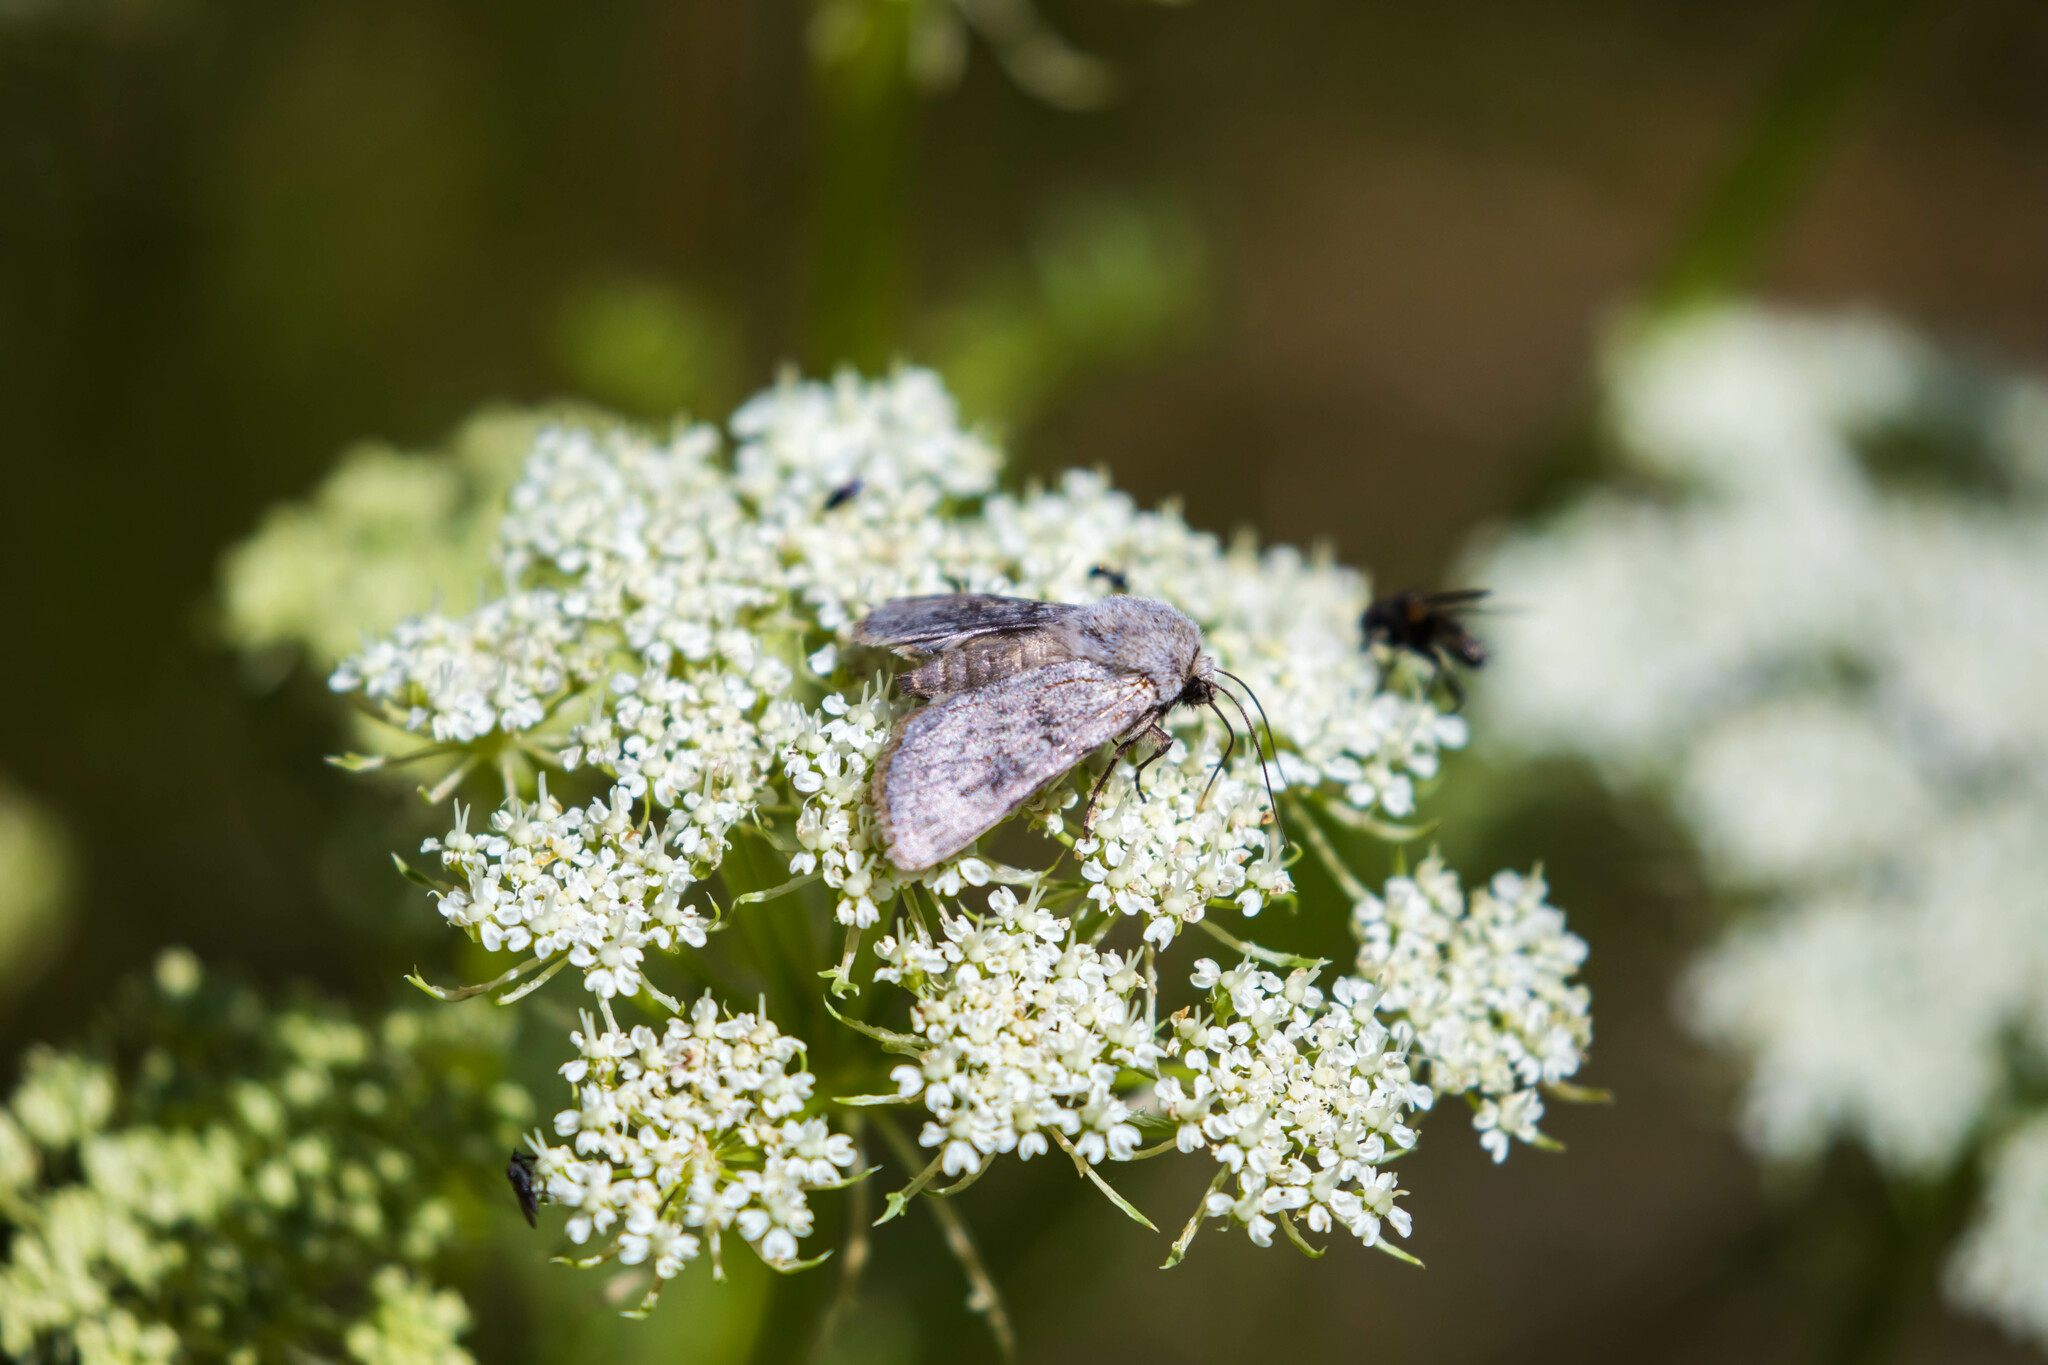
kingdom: Animalia
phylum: Arthropoda
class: Insecta
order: Lepidoptera
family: Noctuidae
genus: Agrotis
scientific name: Agrotis simplonia
